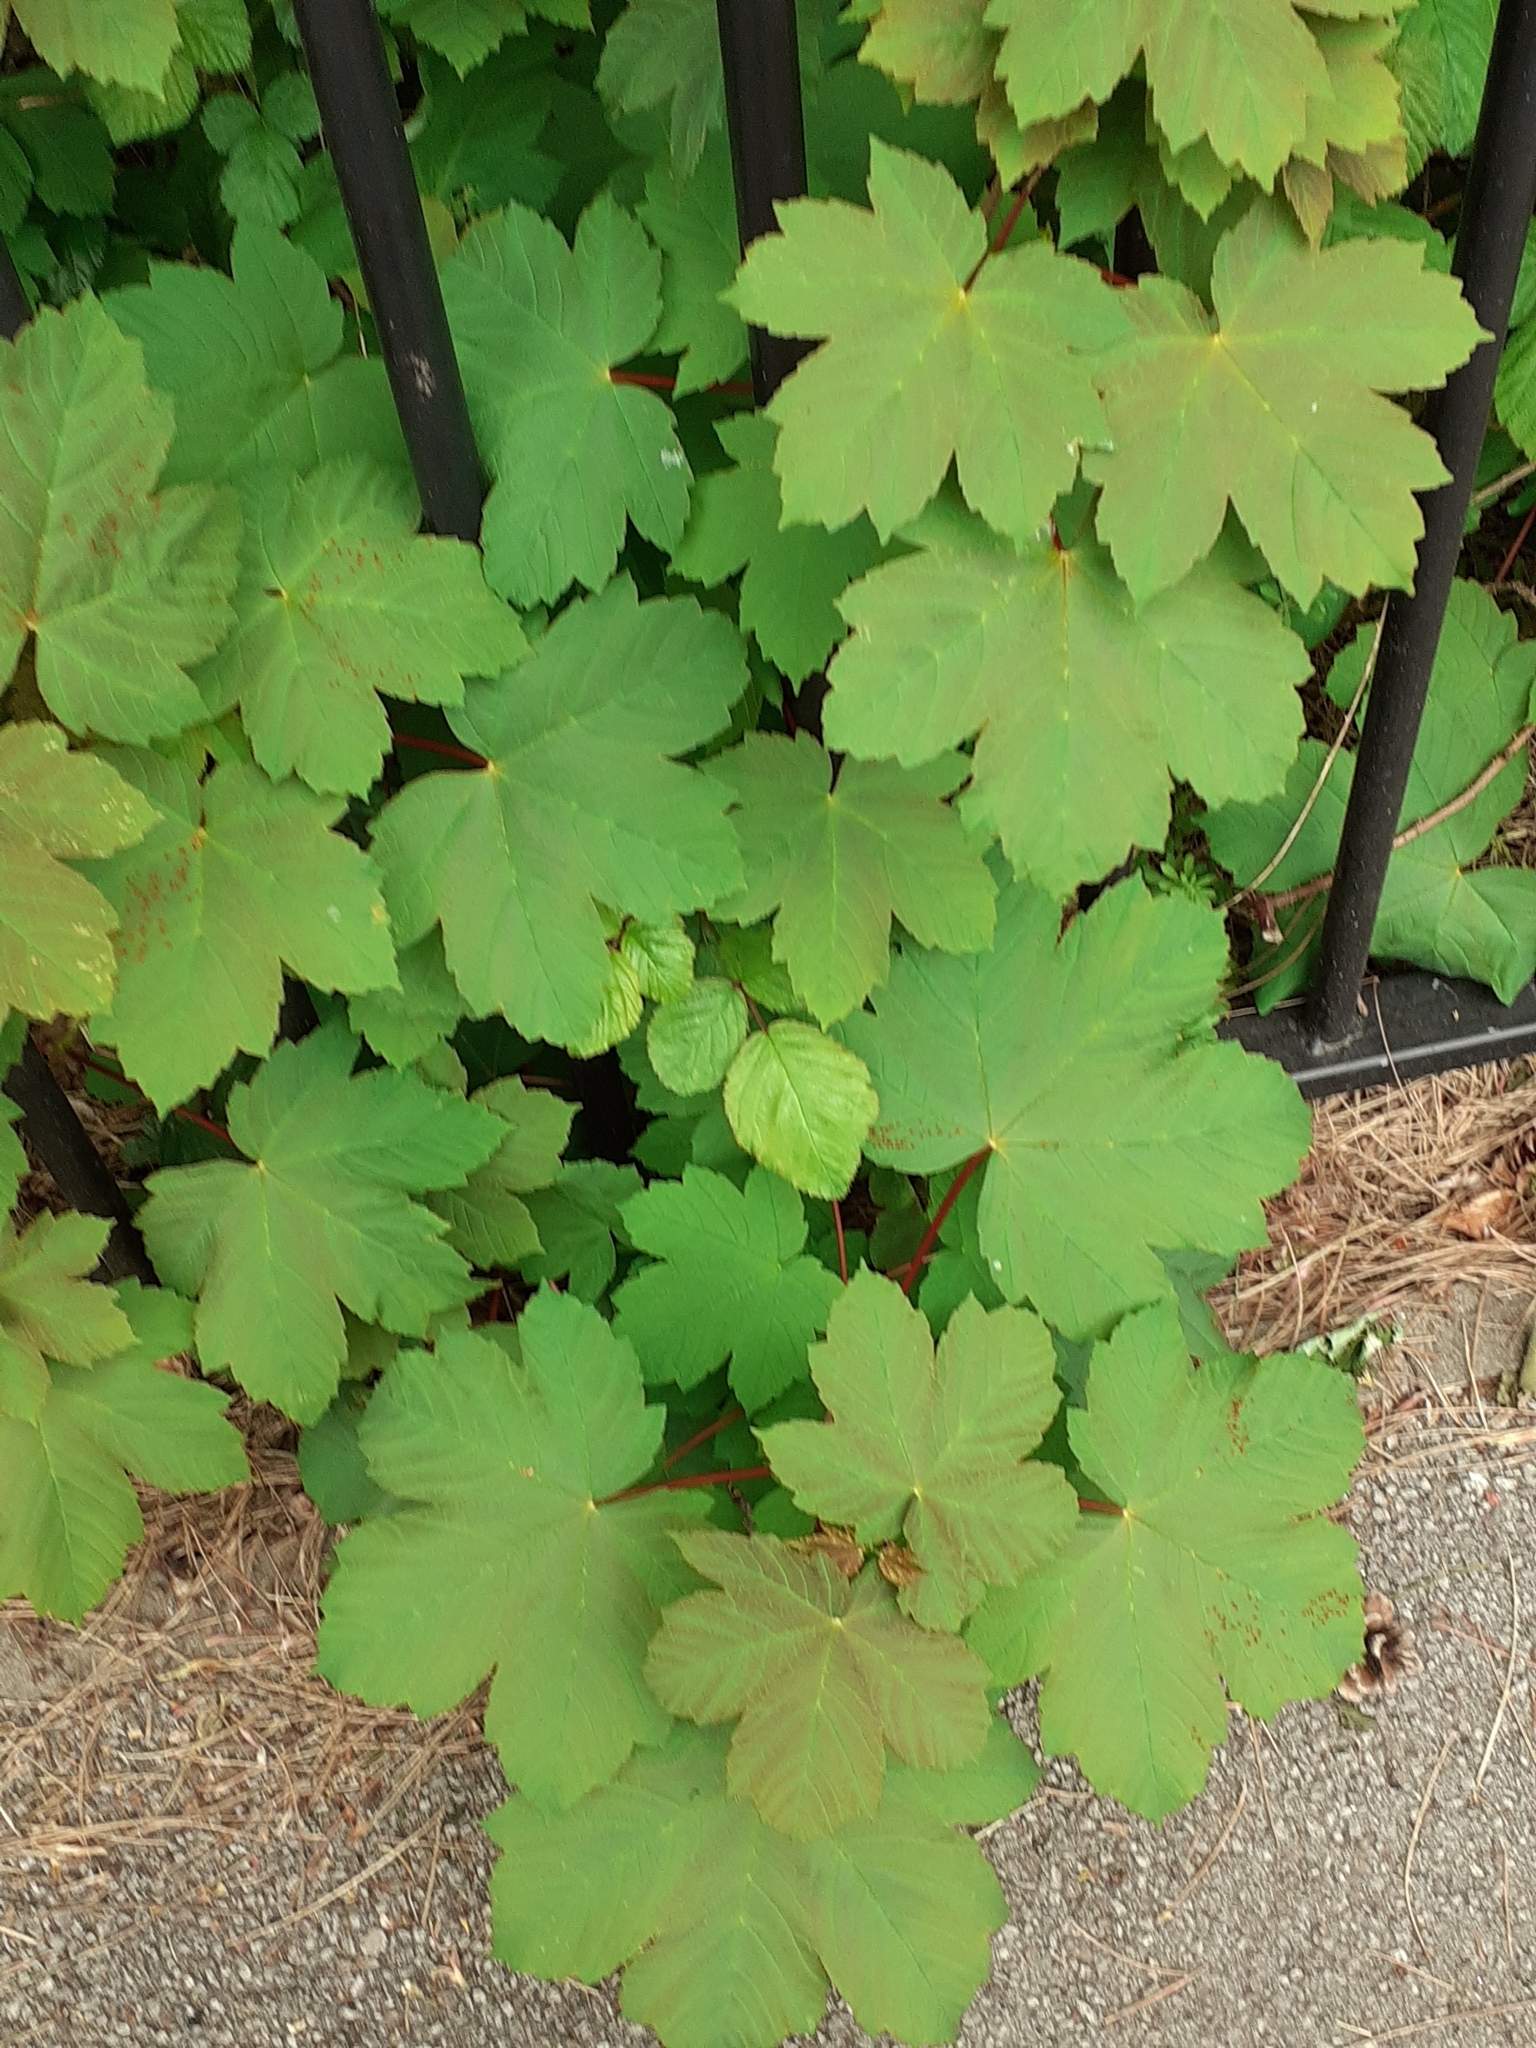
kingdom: Plantae
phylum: Tracheophyta
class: Magnoliopsida
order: Sapindales
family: Sapindaceae
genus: Acer
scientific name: Acer pseudoplatanus
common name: Sycamore
